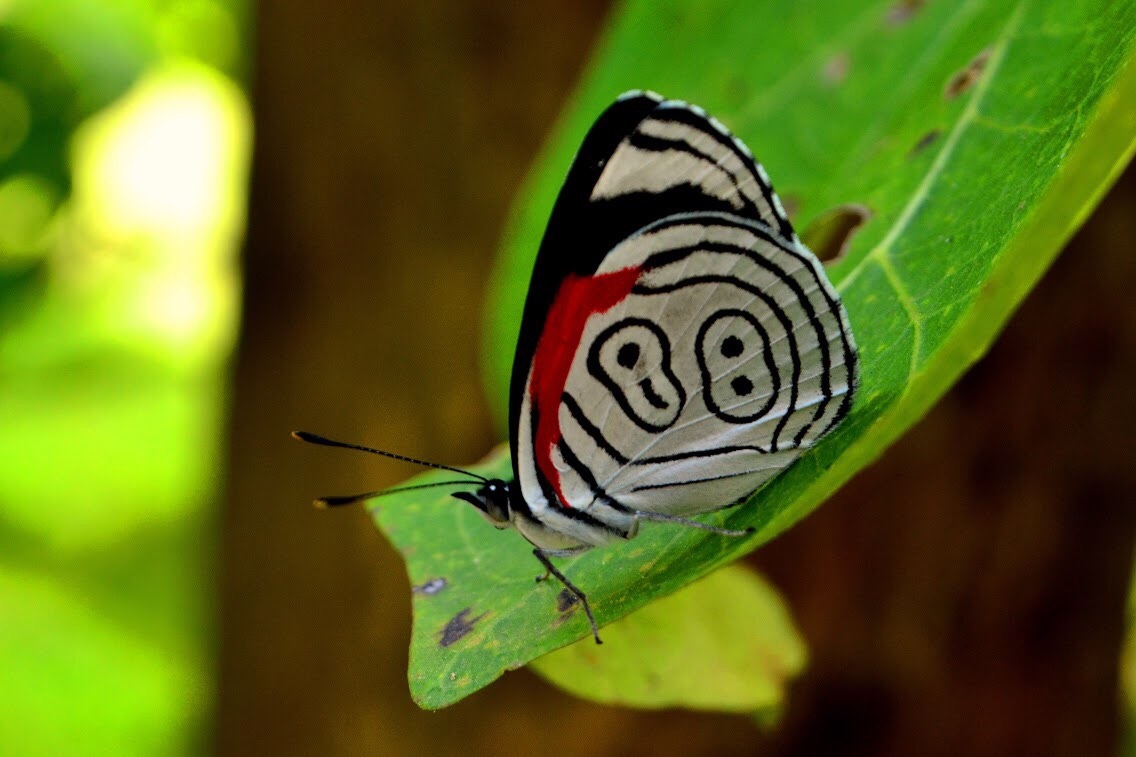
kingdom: Animalia
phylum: Arthropoda
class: Insecta
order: Lepidoptera
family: Nymphalidae
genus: Diaethria
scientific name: Diaethria anna
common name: Anna’s eighty-eight
